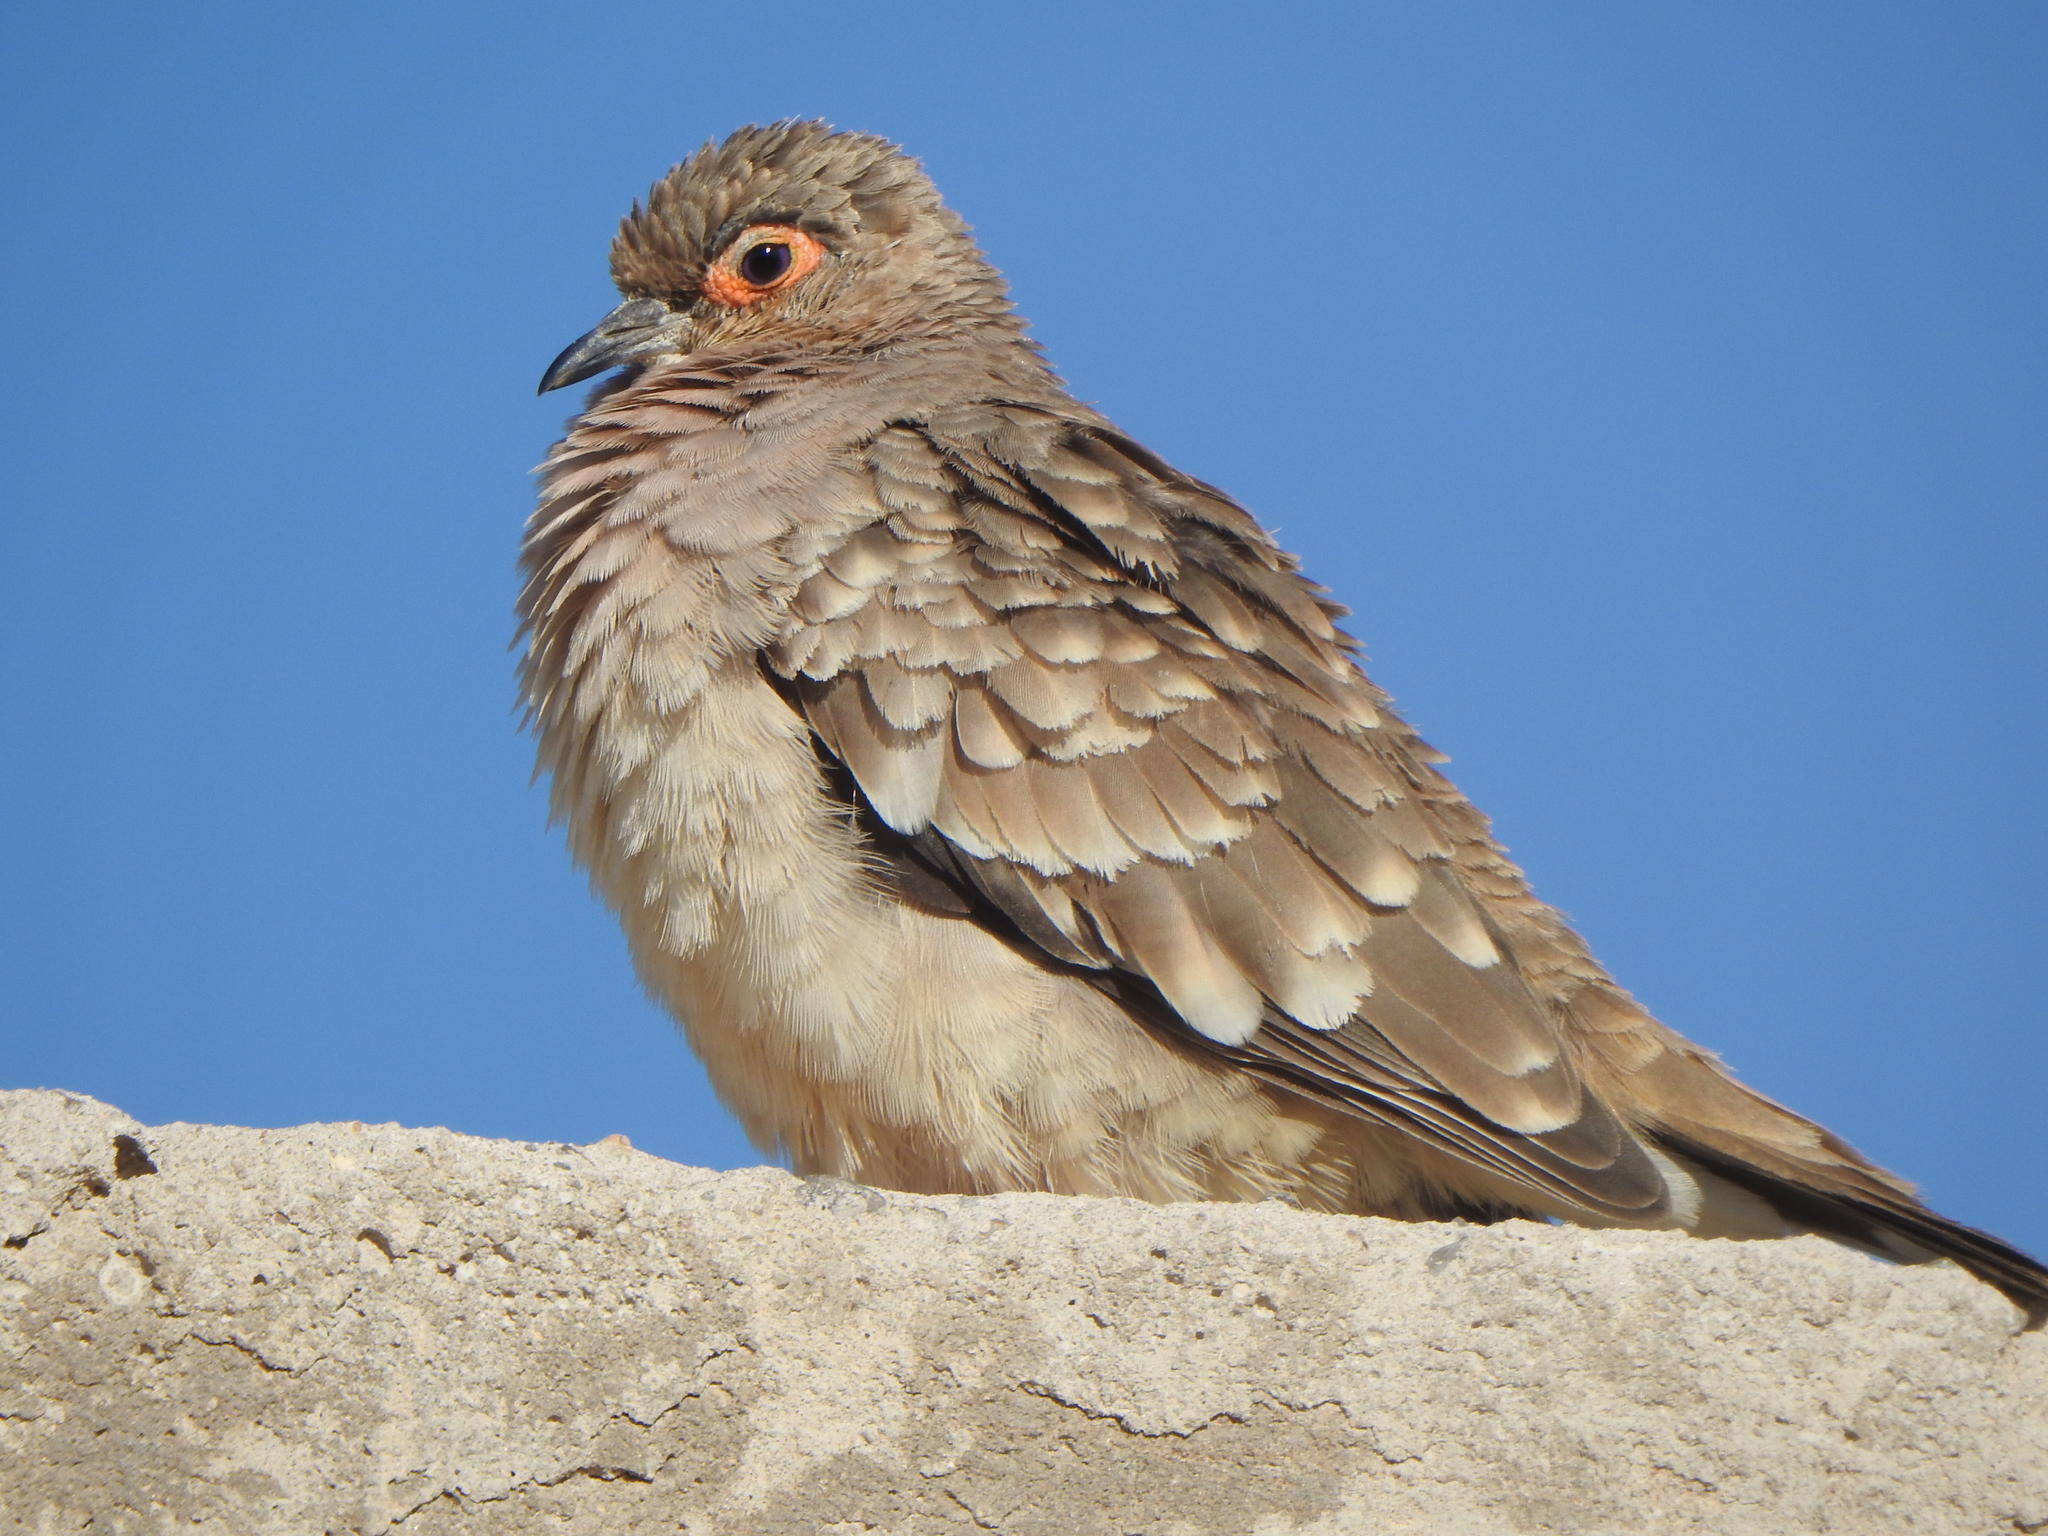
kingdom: Animalia
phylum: Chordata
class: Aves
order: Columbiformes
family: Columbidae
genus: Metriopelia
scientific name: Metriopelia ceciliae
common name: Bare-faced ground dove
